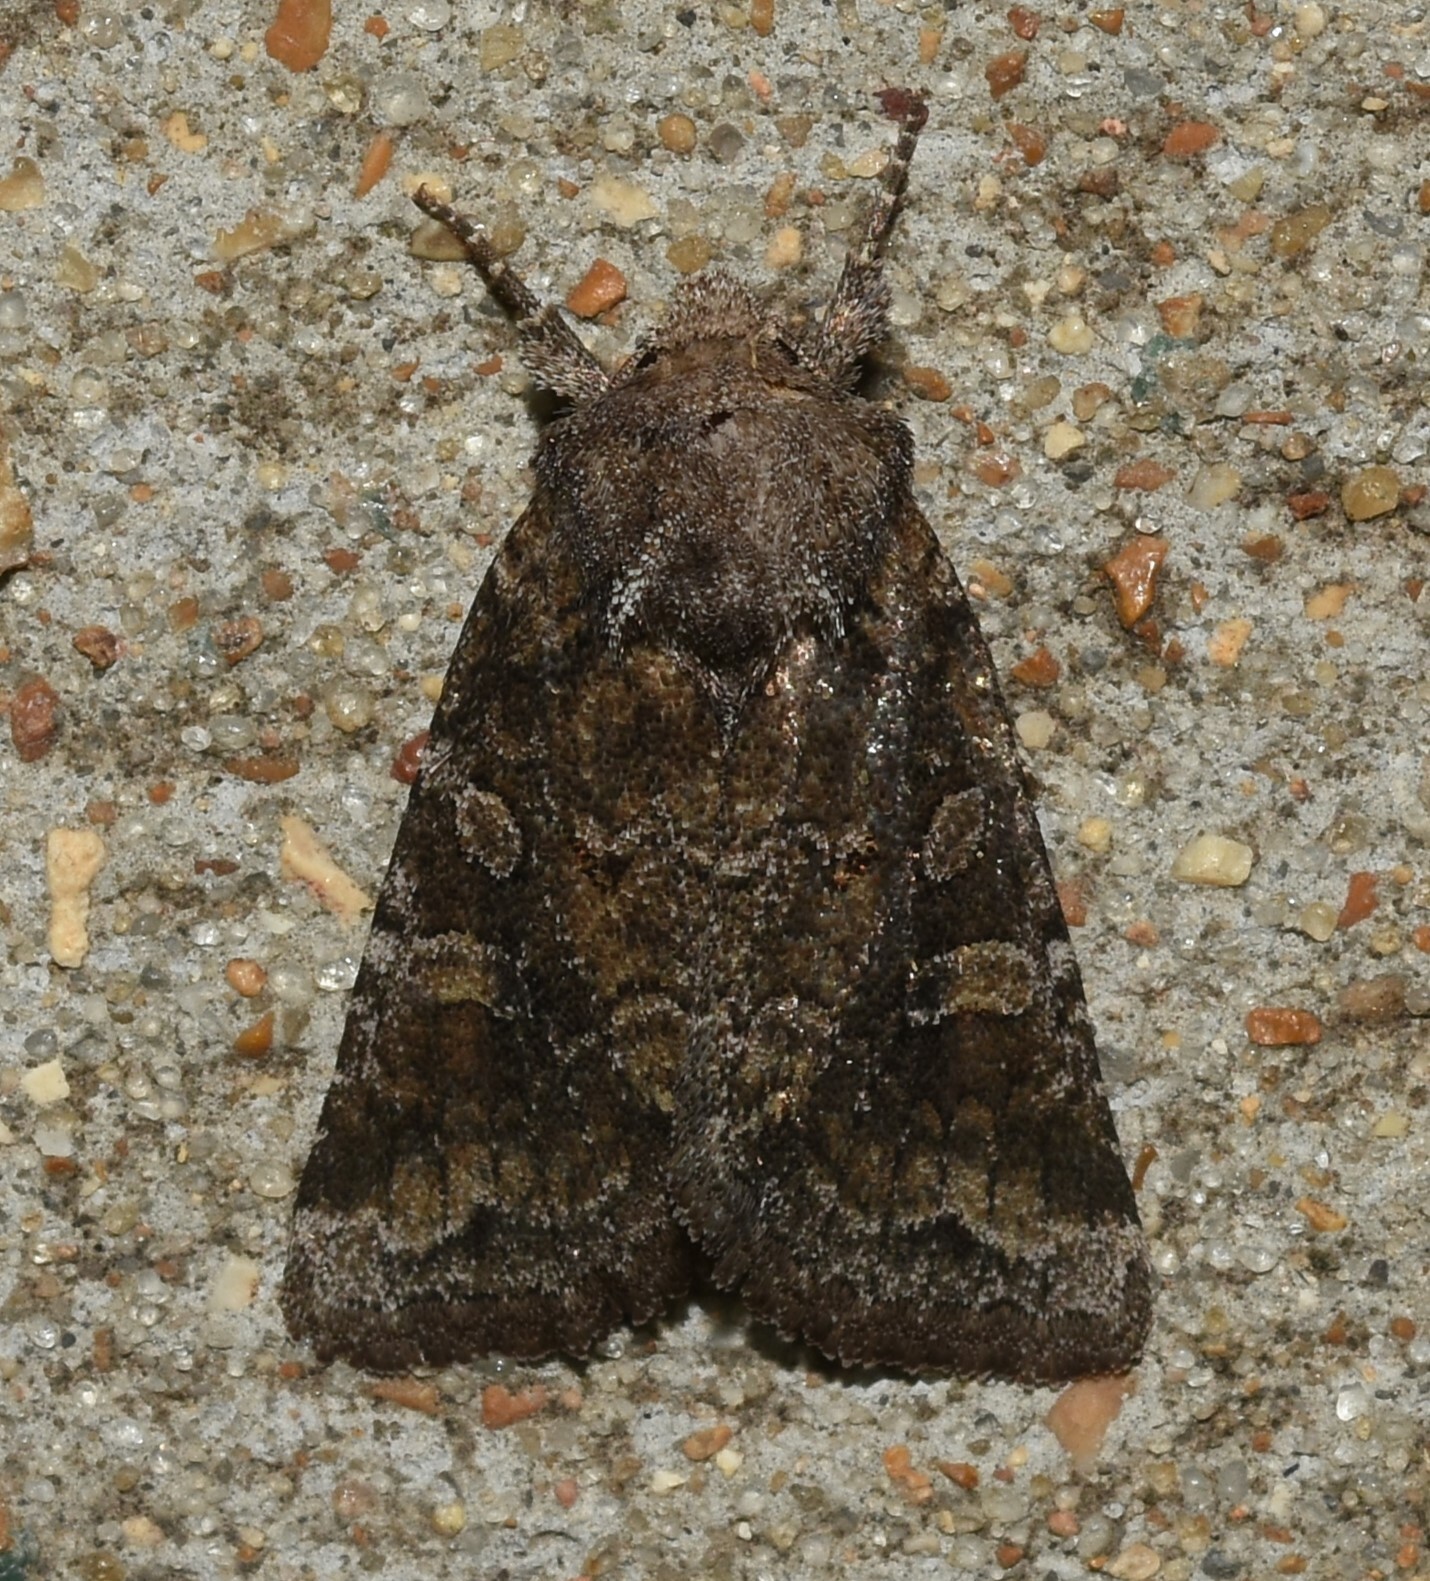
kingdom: Animalia
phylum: Arthropoda
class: Insecta
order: Lepidoptera
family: Noctuidae
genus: Lacinipolia
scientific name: Lacinipolia meditata
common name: Thinker moth
